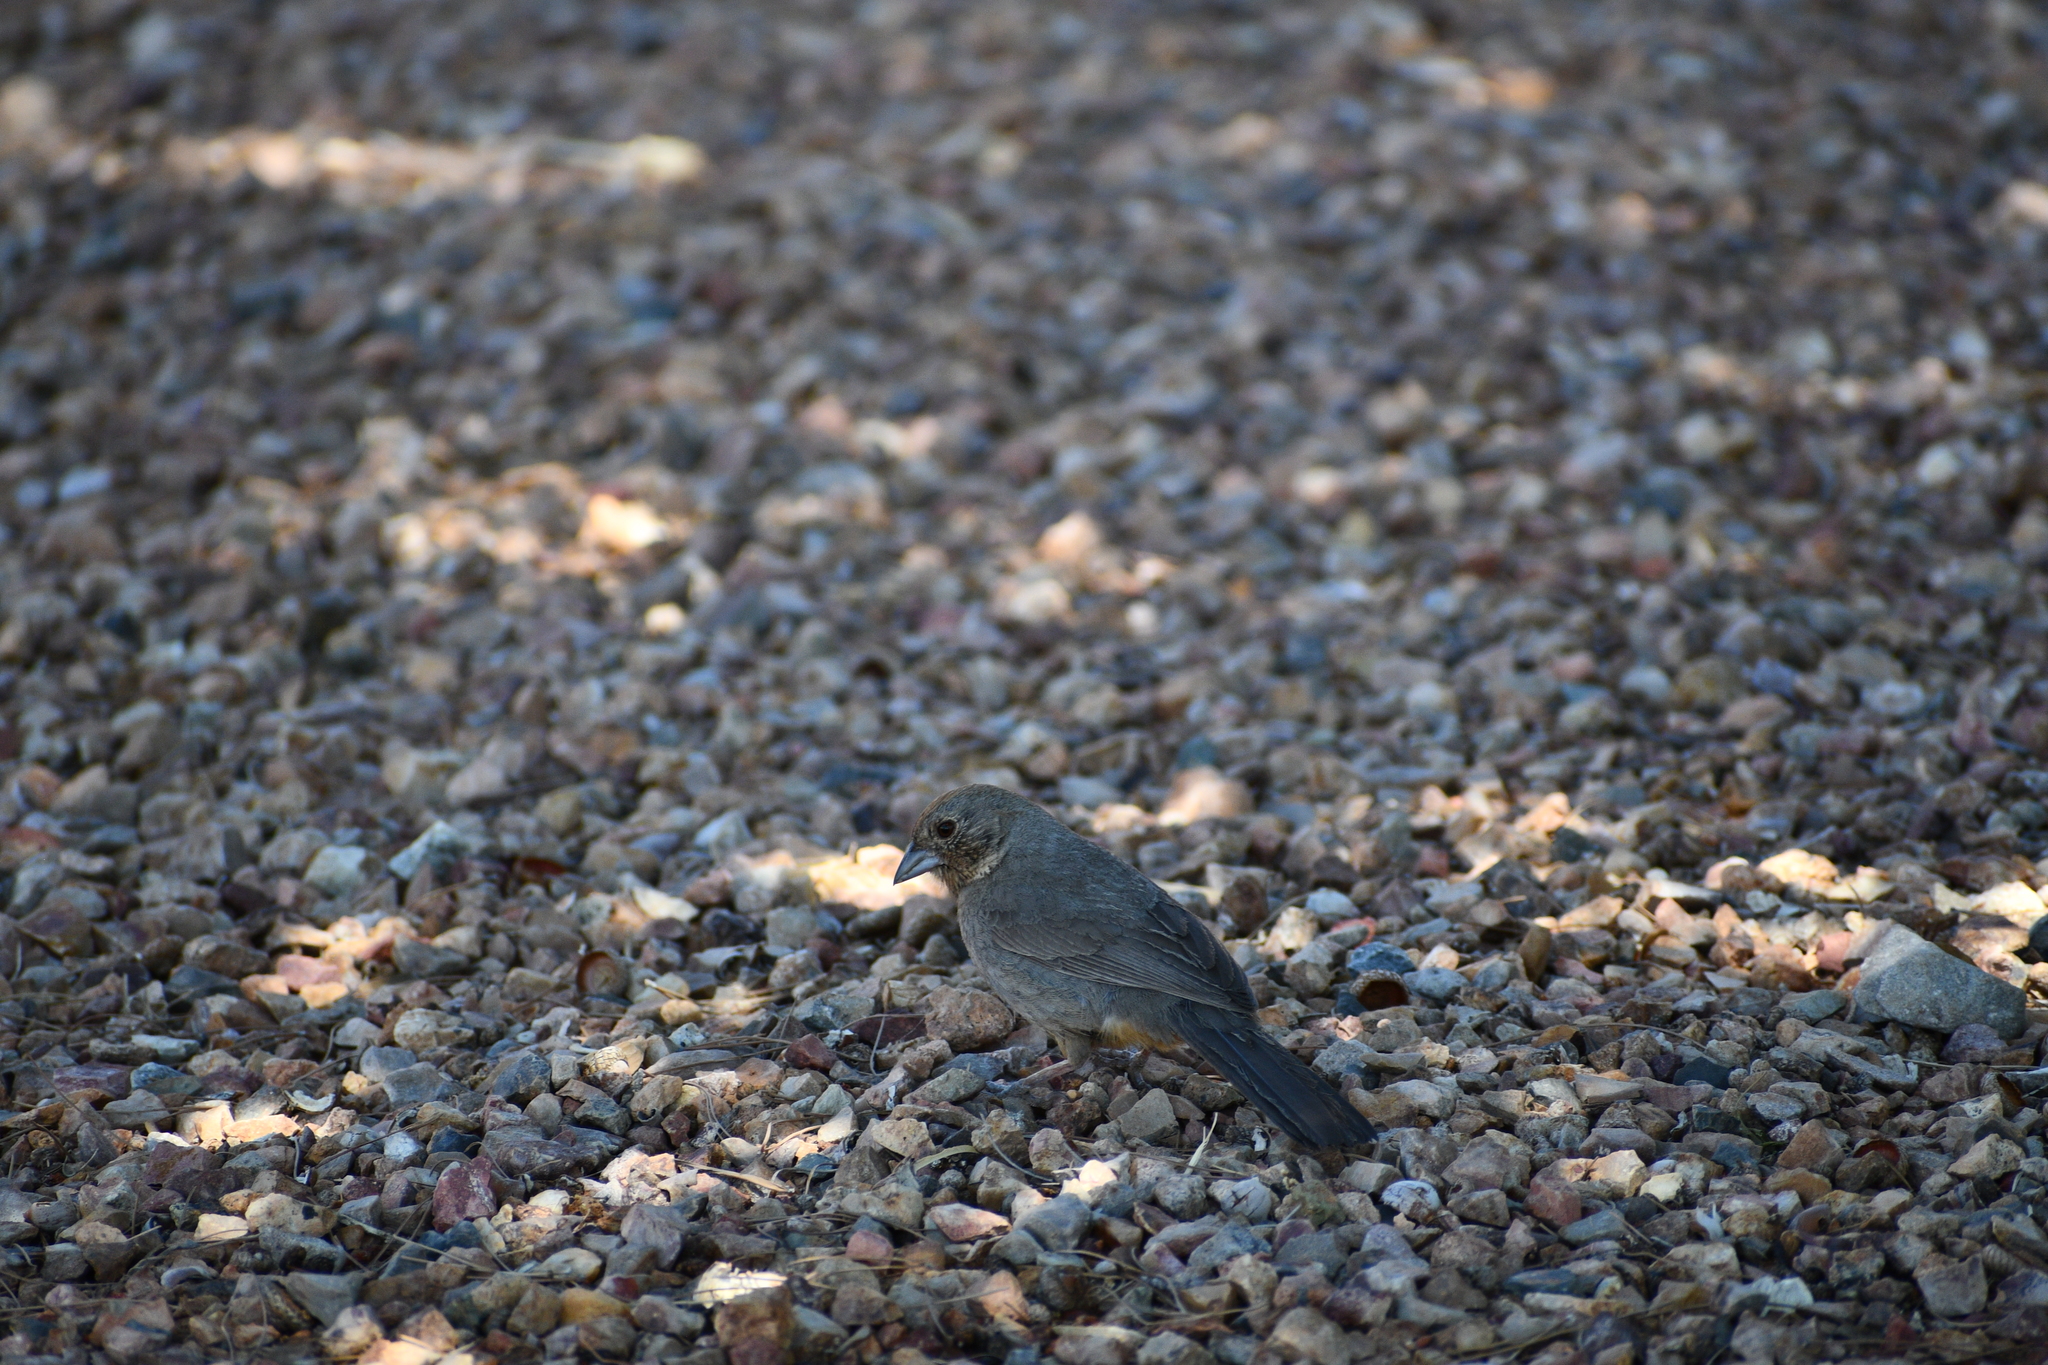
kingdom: Animalia
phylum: Chordata
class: Aves
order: Passeriformes
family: Passerellidae
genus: Melozone
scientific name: Melozone fusca
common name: Canyon towhee
